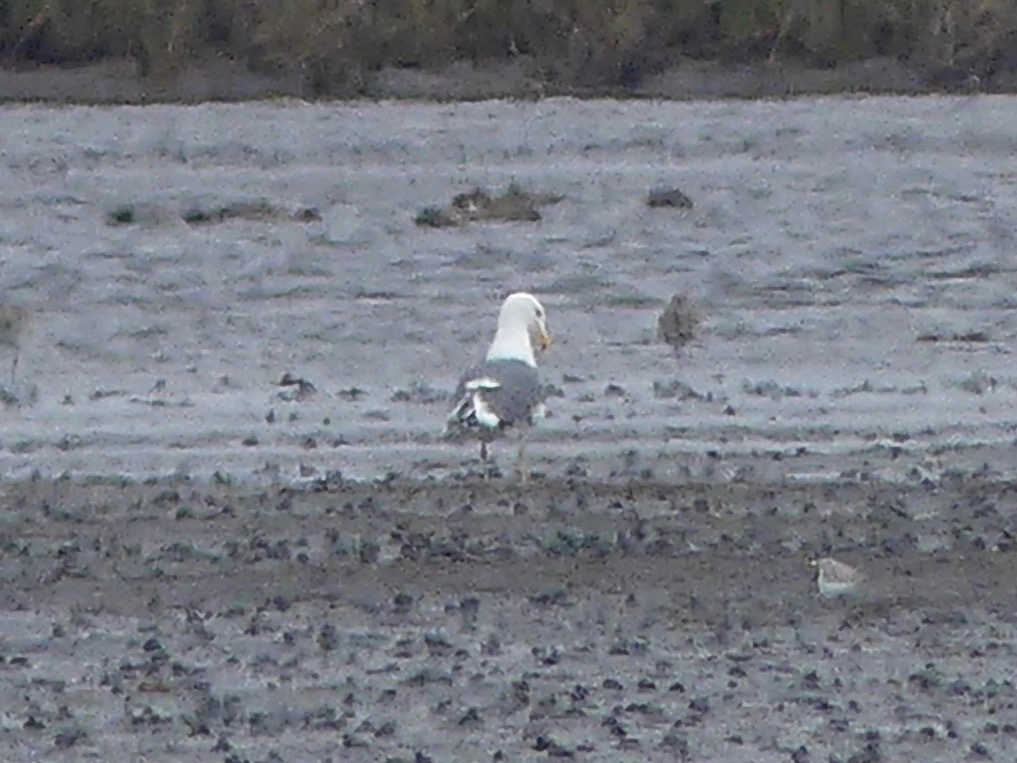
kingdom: Animalia
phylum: Chordata
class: Aves
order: Charadriiformes
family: Laridae
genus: Larus
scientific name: Larus
